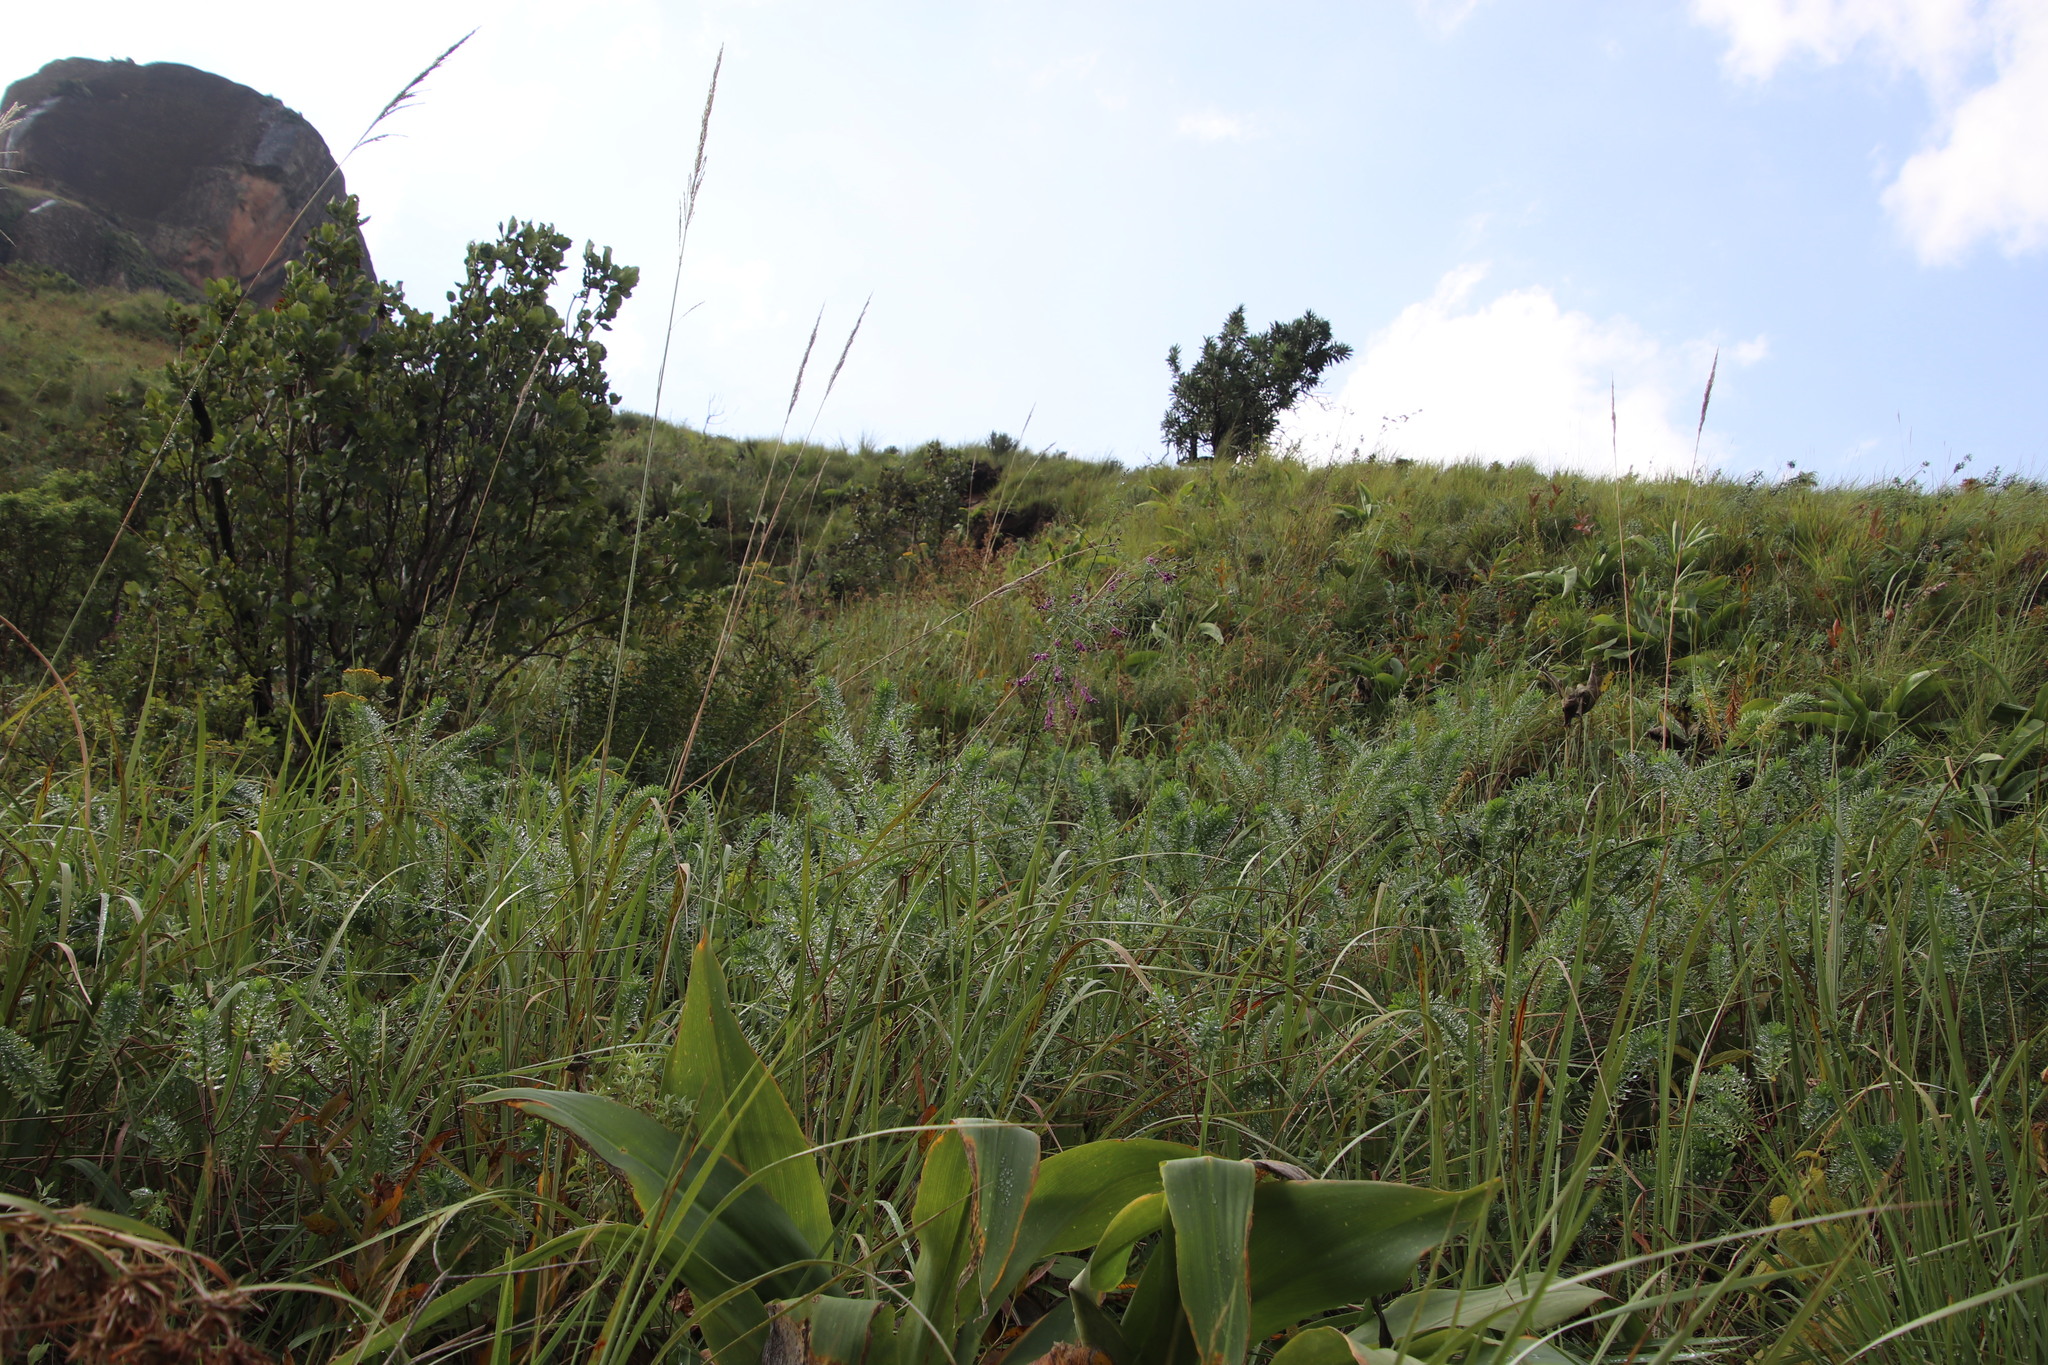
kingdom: Plantae
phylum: Tracheophyta
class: Magnoliopsida
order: Fabales
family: Polygalaceae
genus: Polygala
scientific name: Polygala virgata
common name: Milkwort
